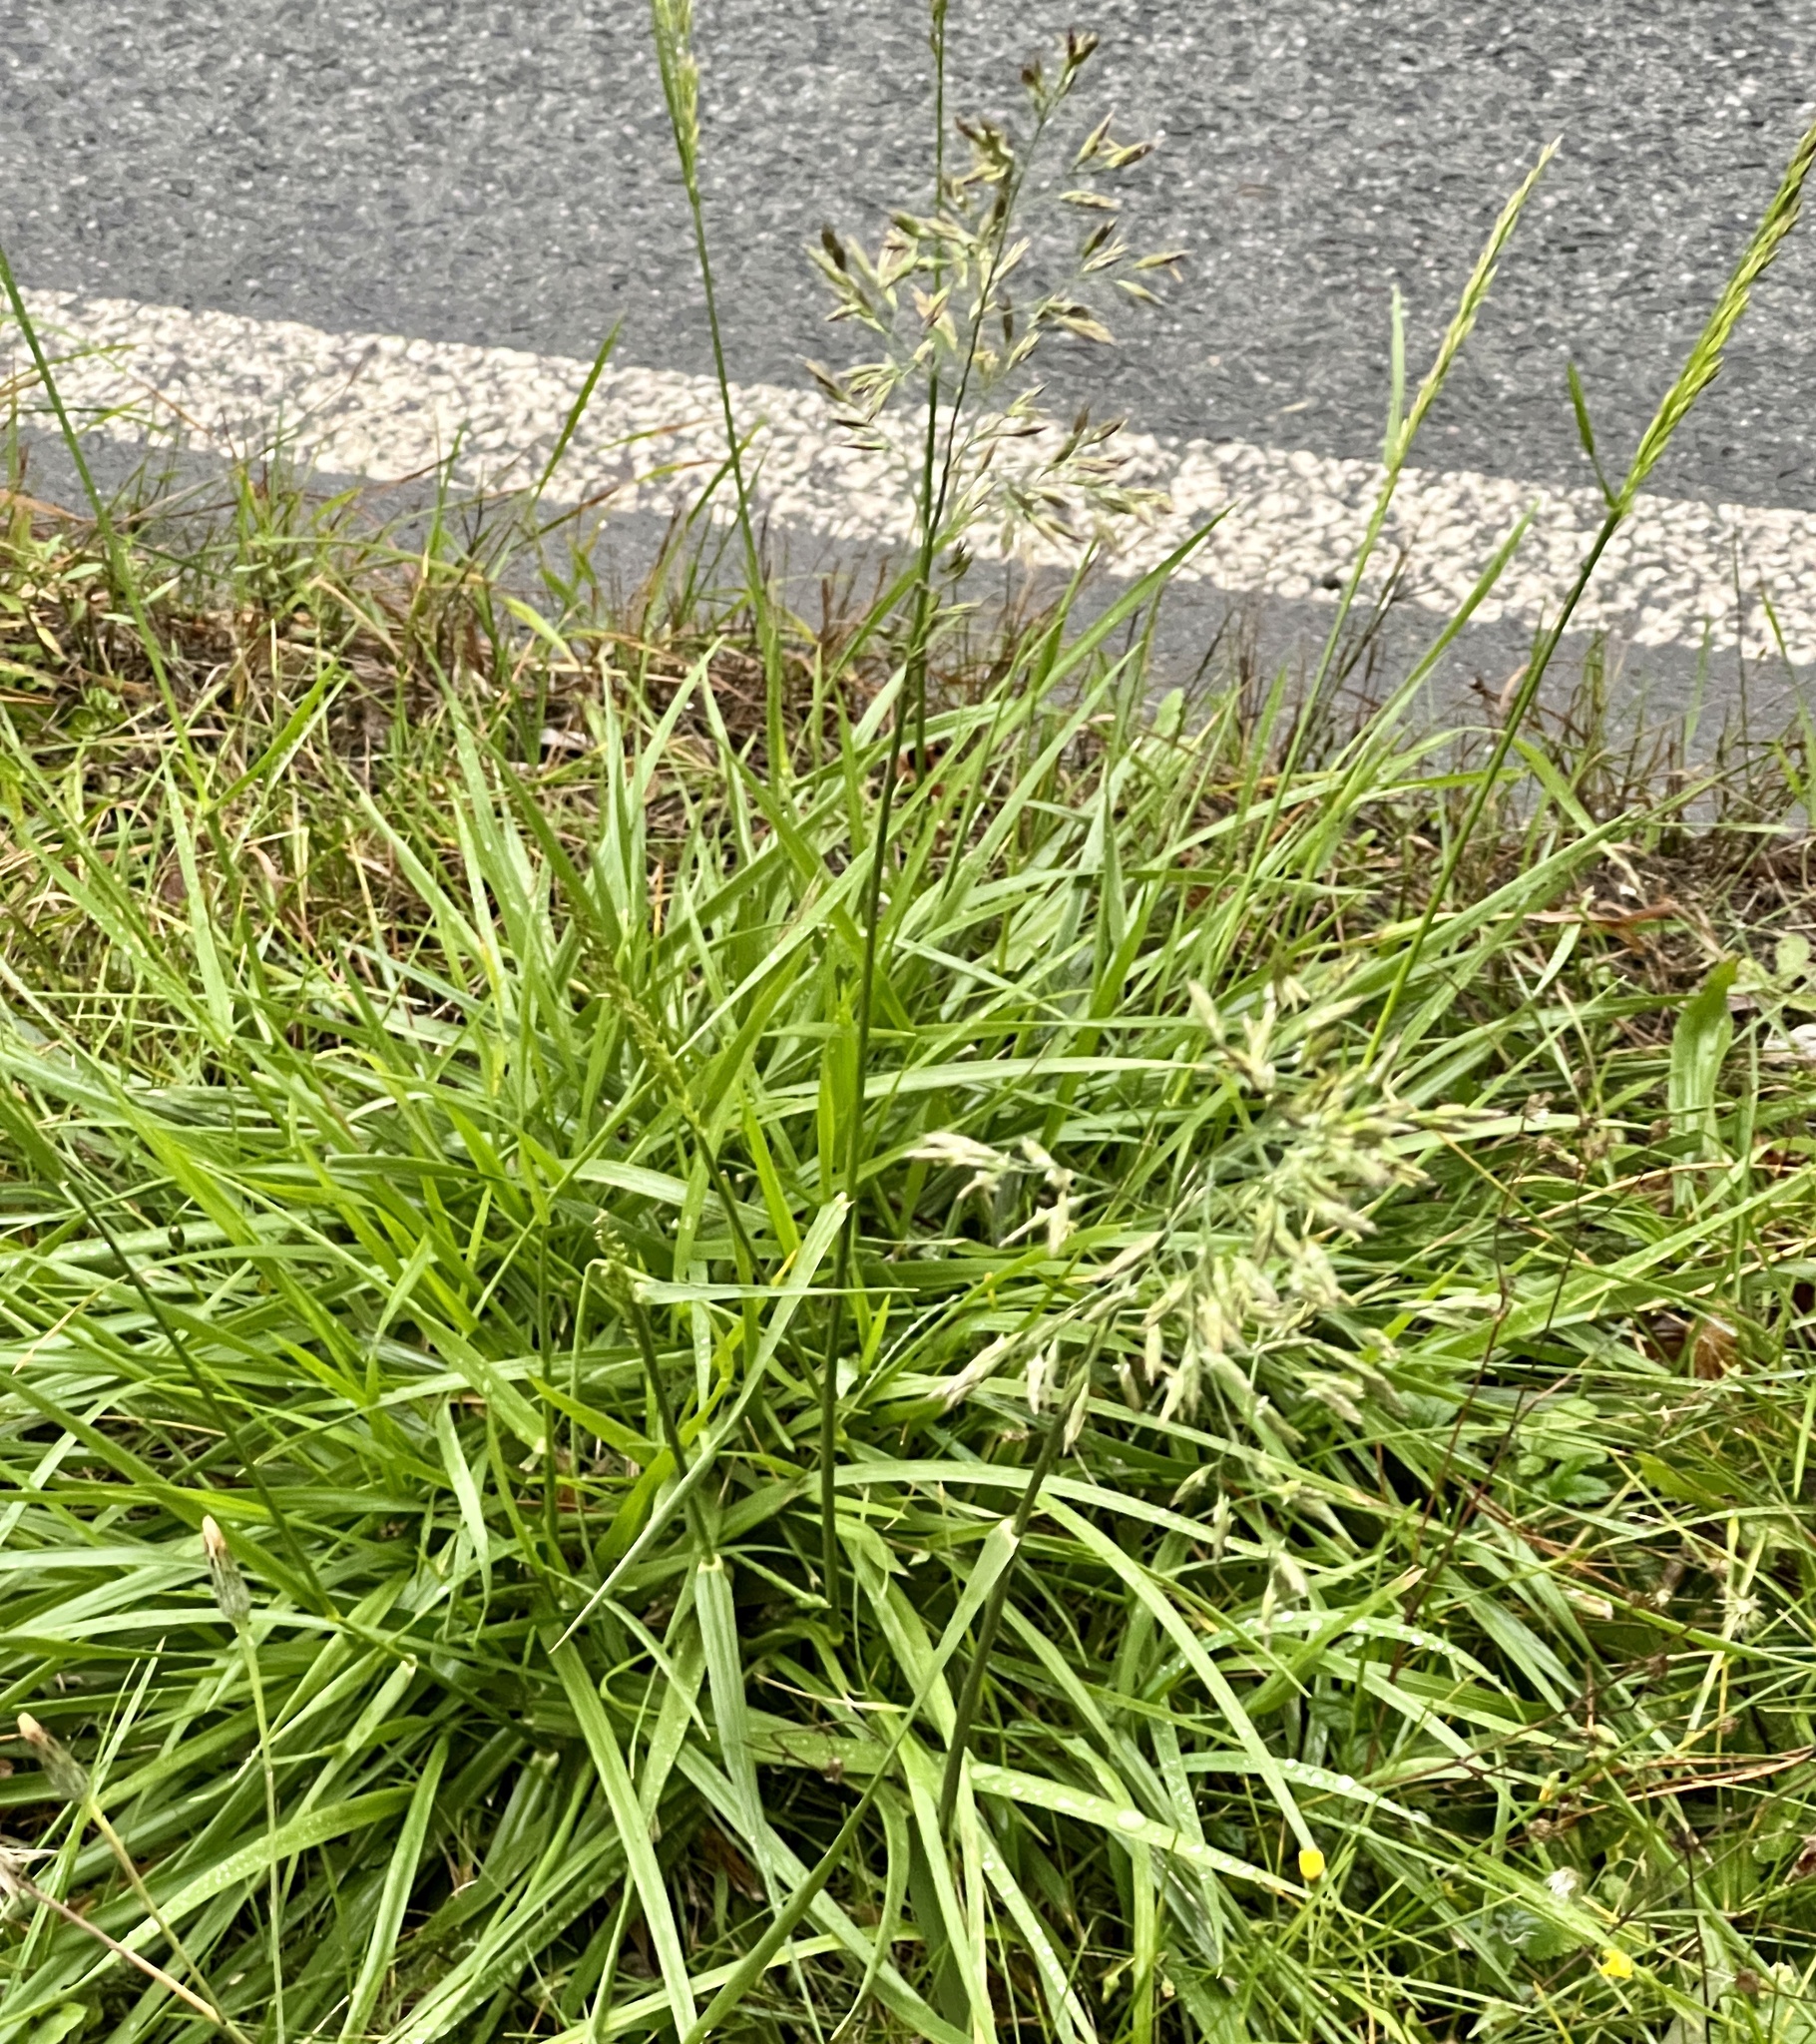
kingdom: Plantae
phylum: Tracheophyta
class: Liliopsida
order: Poales
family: Poaceae
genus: Lolium
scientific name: Lolium arundinaceum
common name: Reed fescue
